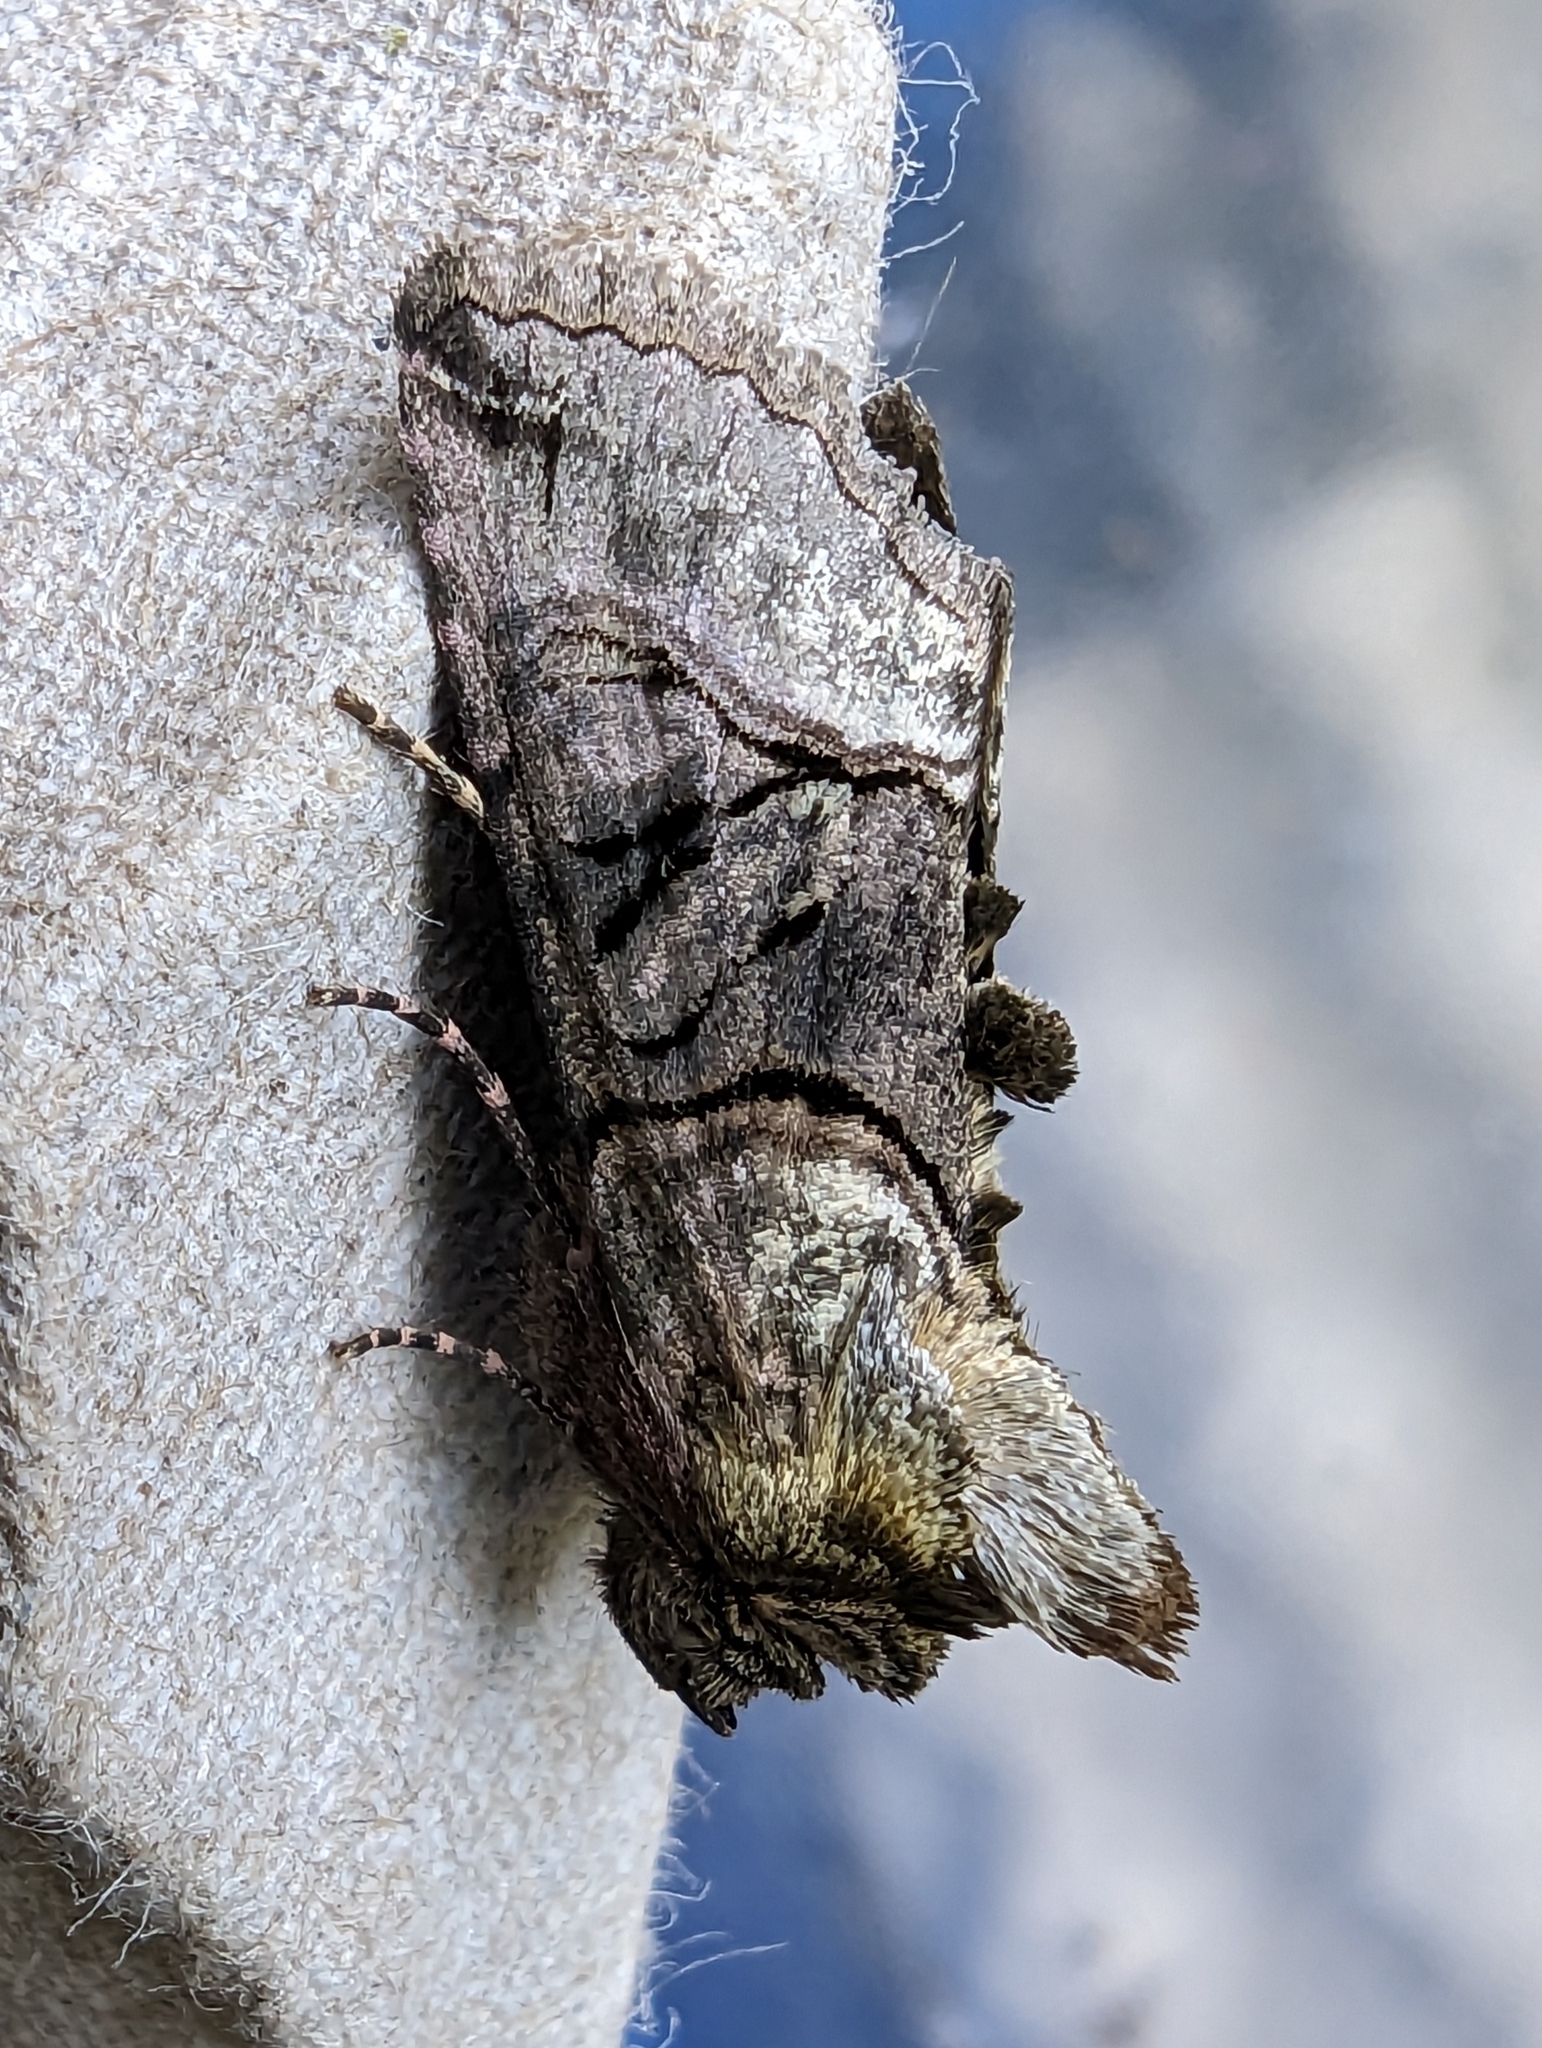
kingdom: Animalia
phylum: Arthropoda
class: Insecta
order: Lepidoptera
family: Noctuidae
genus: Abrostola
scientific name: Abrostola tripartita
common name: Spectacle
